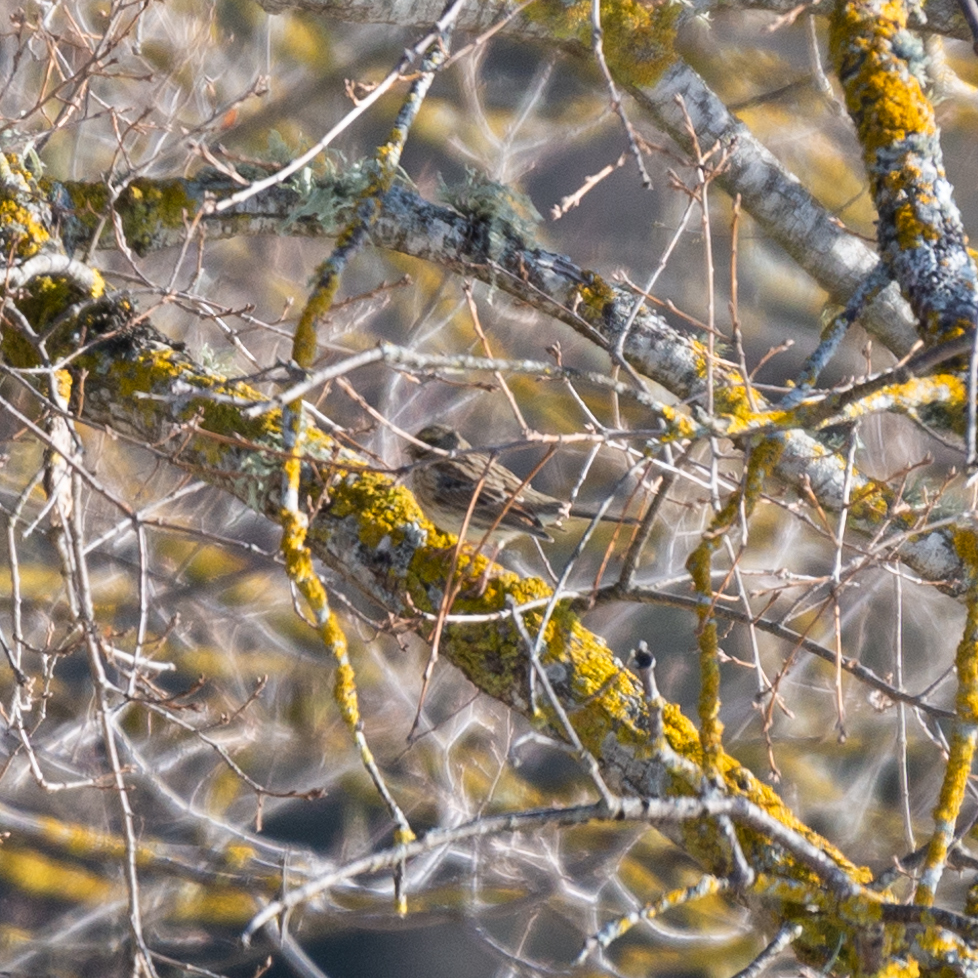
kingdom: Animalia
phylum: Chordata
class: Aves
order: Passeriformes
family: Emberizidae
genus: Emberiza
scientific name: Emberiza cirlus
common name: Cirl bunting
